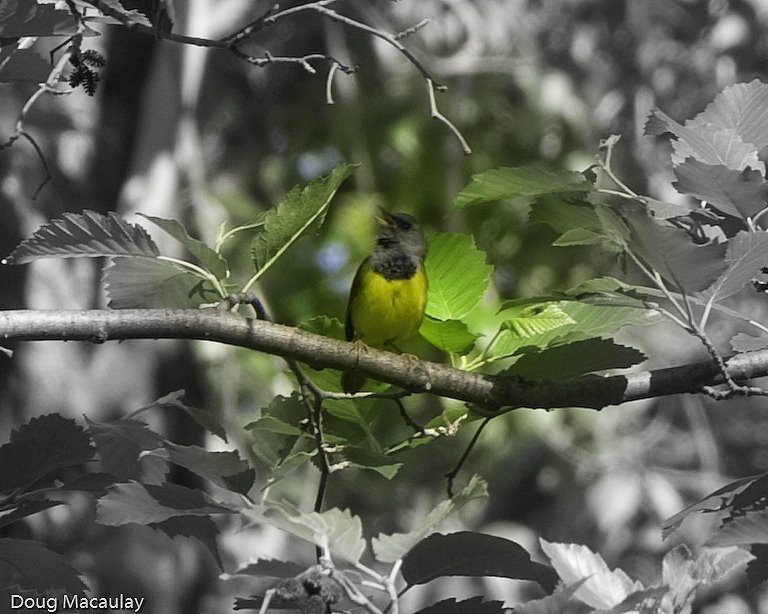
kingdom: Animalia
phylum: Chordata
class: Aves
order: Passeriformes
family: Parulidae
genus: Geothlypis
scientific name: Geothlypis philadelphia
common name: Mourning warbler
